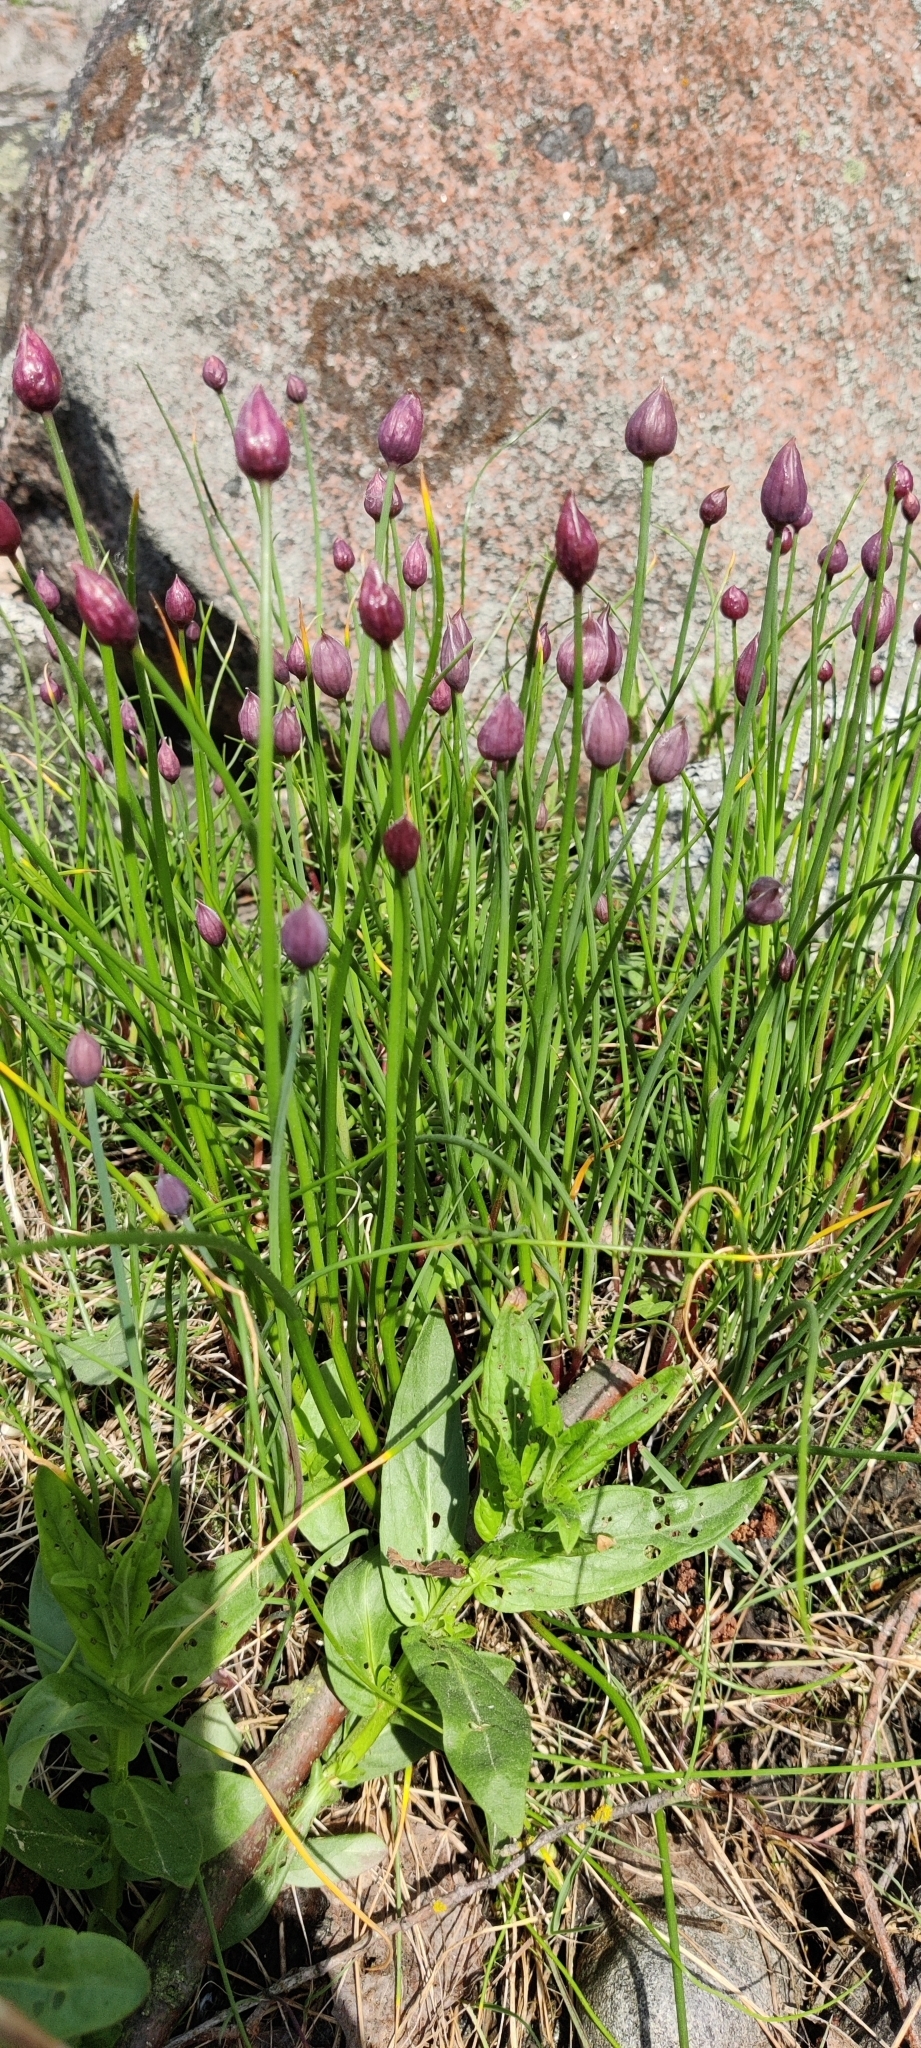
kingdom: Plantae
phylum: Tracheophyta
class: Liliopsida
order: Asparagales
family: Amaryllidaceae
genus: Allium
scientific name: Allium schoenoprasum
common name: Chives
